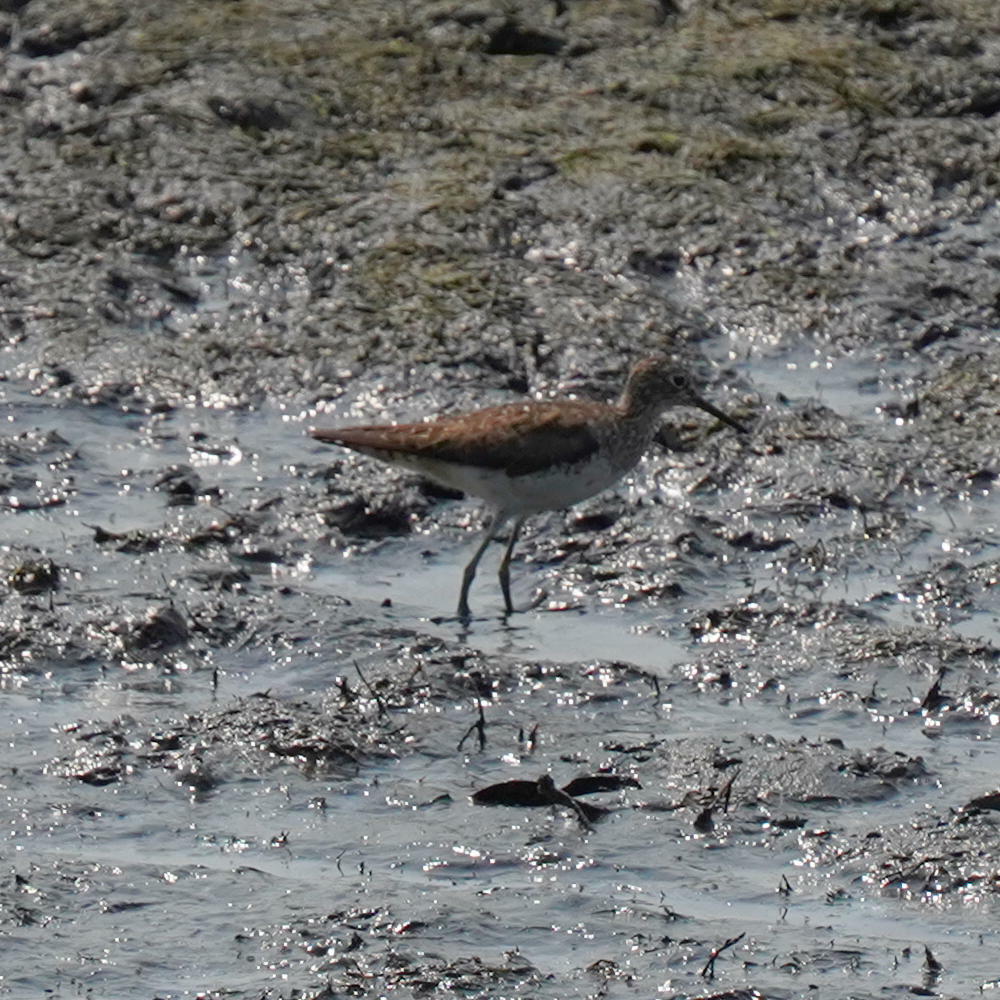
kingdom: Animalia
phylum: Chordata
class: Aves
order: Charadriiformes
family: Scolopacidae
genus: Tringa
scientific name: Tringa solitaria
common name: Solitary sandpiper
